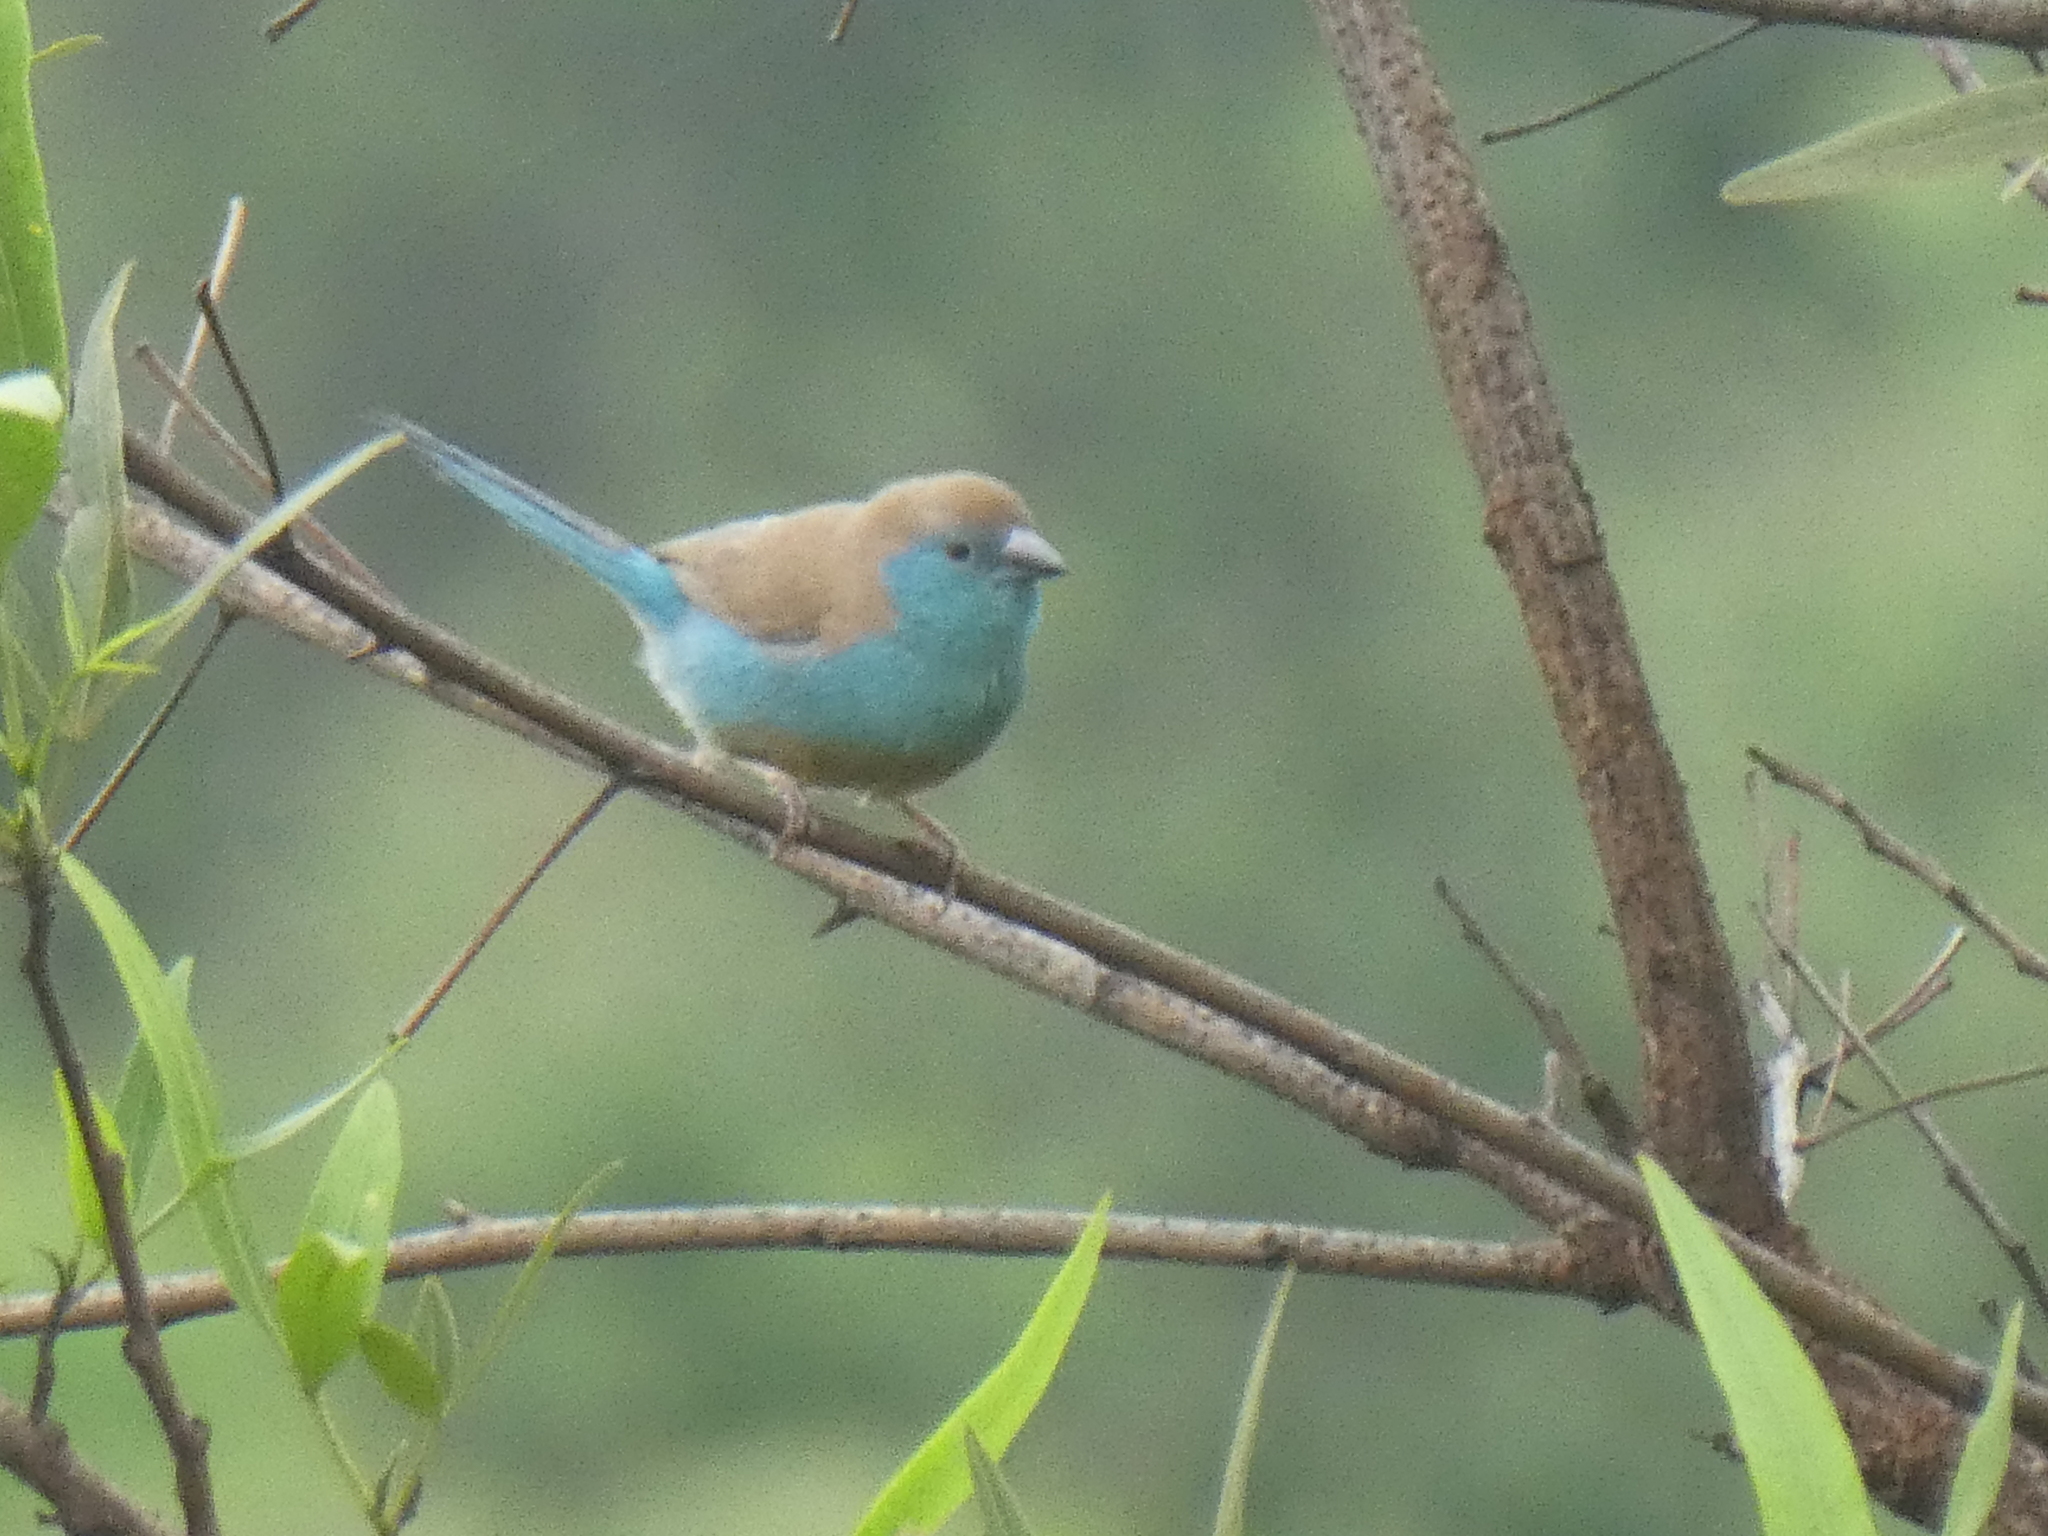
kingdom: Animalia
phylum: Chordata
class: Aves
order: Passeriformes
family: Estrildidae
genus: Uraeginthus
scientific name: Uraeginthus angolensis
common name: Blue waxbill
